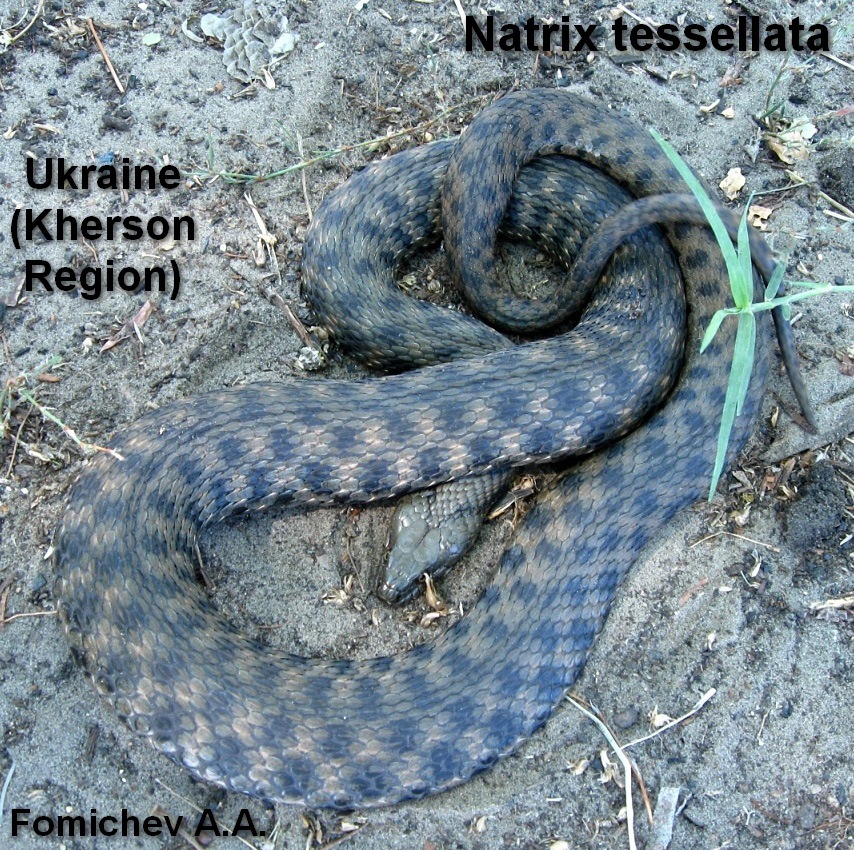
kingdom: Animalia
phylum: Chordata
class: Squamata
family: Colubridae
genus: Natrix
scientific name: Natrix tessellata
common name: Dice snake
